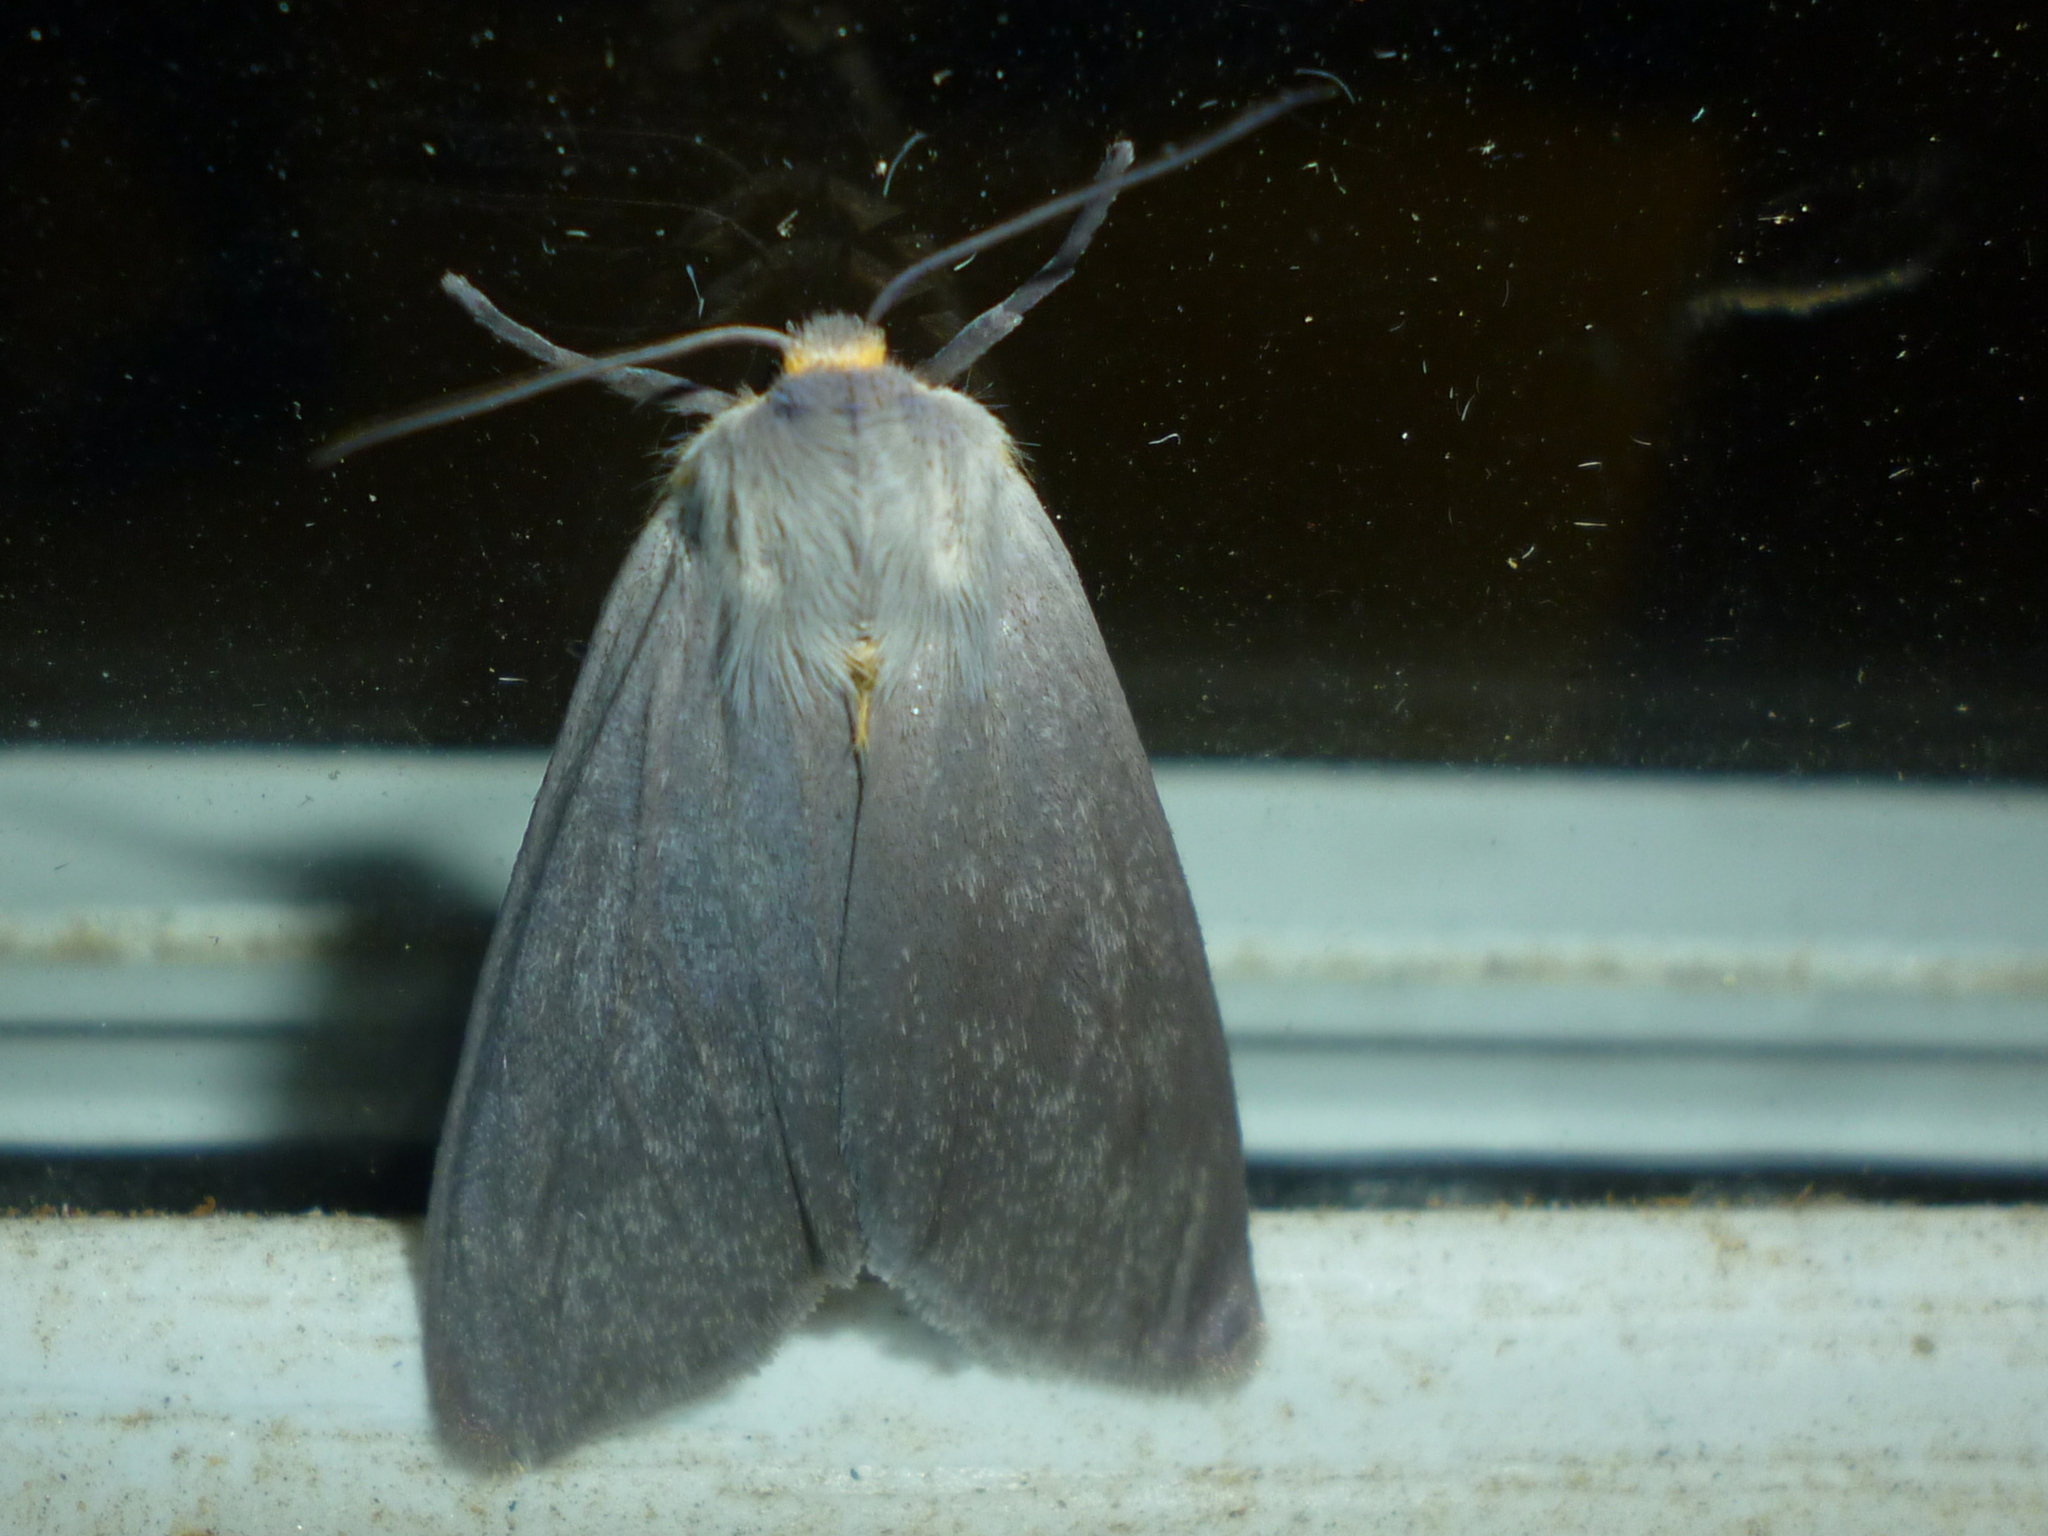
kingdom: Animalia
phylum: Arthropoda
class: Insecta
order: Lepidoptera
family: Erebidae
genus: Euchaetes
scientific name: Euchaetes egle
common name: Milkweed tussock moth
